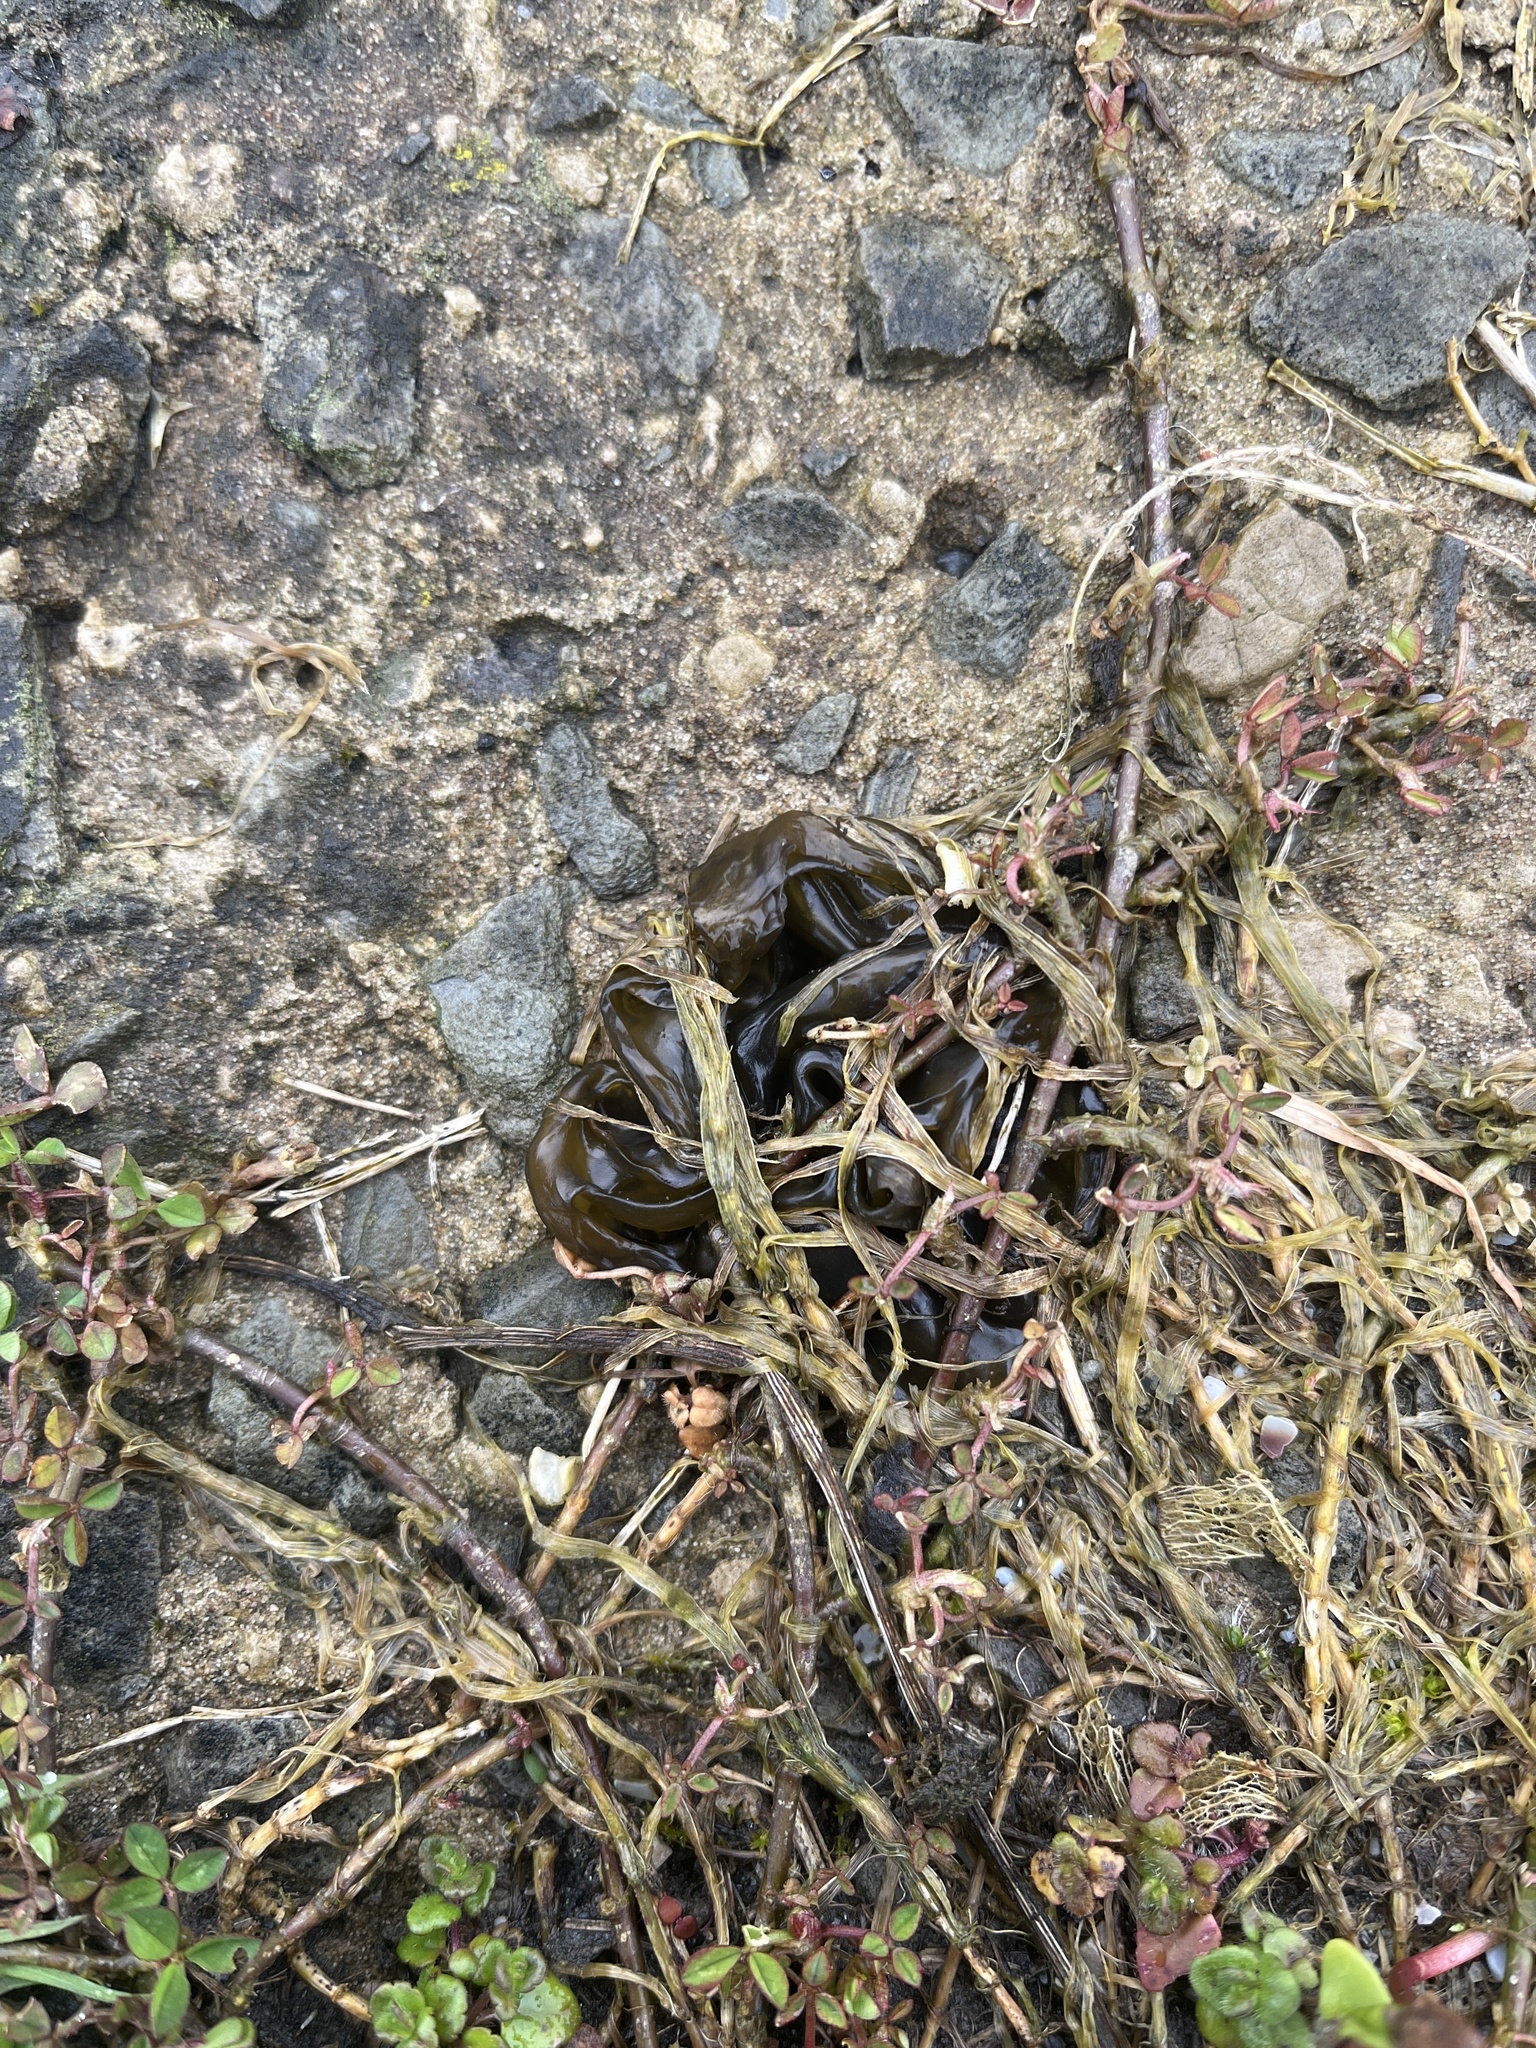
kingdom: Bacteria
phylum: Cyanobacteria
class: Cyanobacteriia
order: Cyanobacteriales
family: Nostocaceae
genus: Nostoc
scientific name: Nostoc commune
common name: Star jelly
